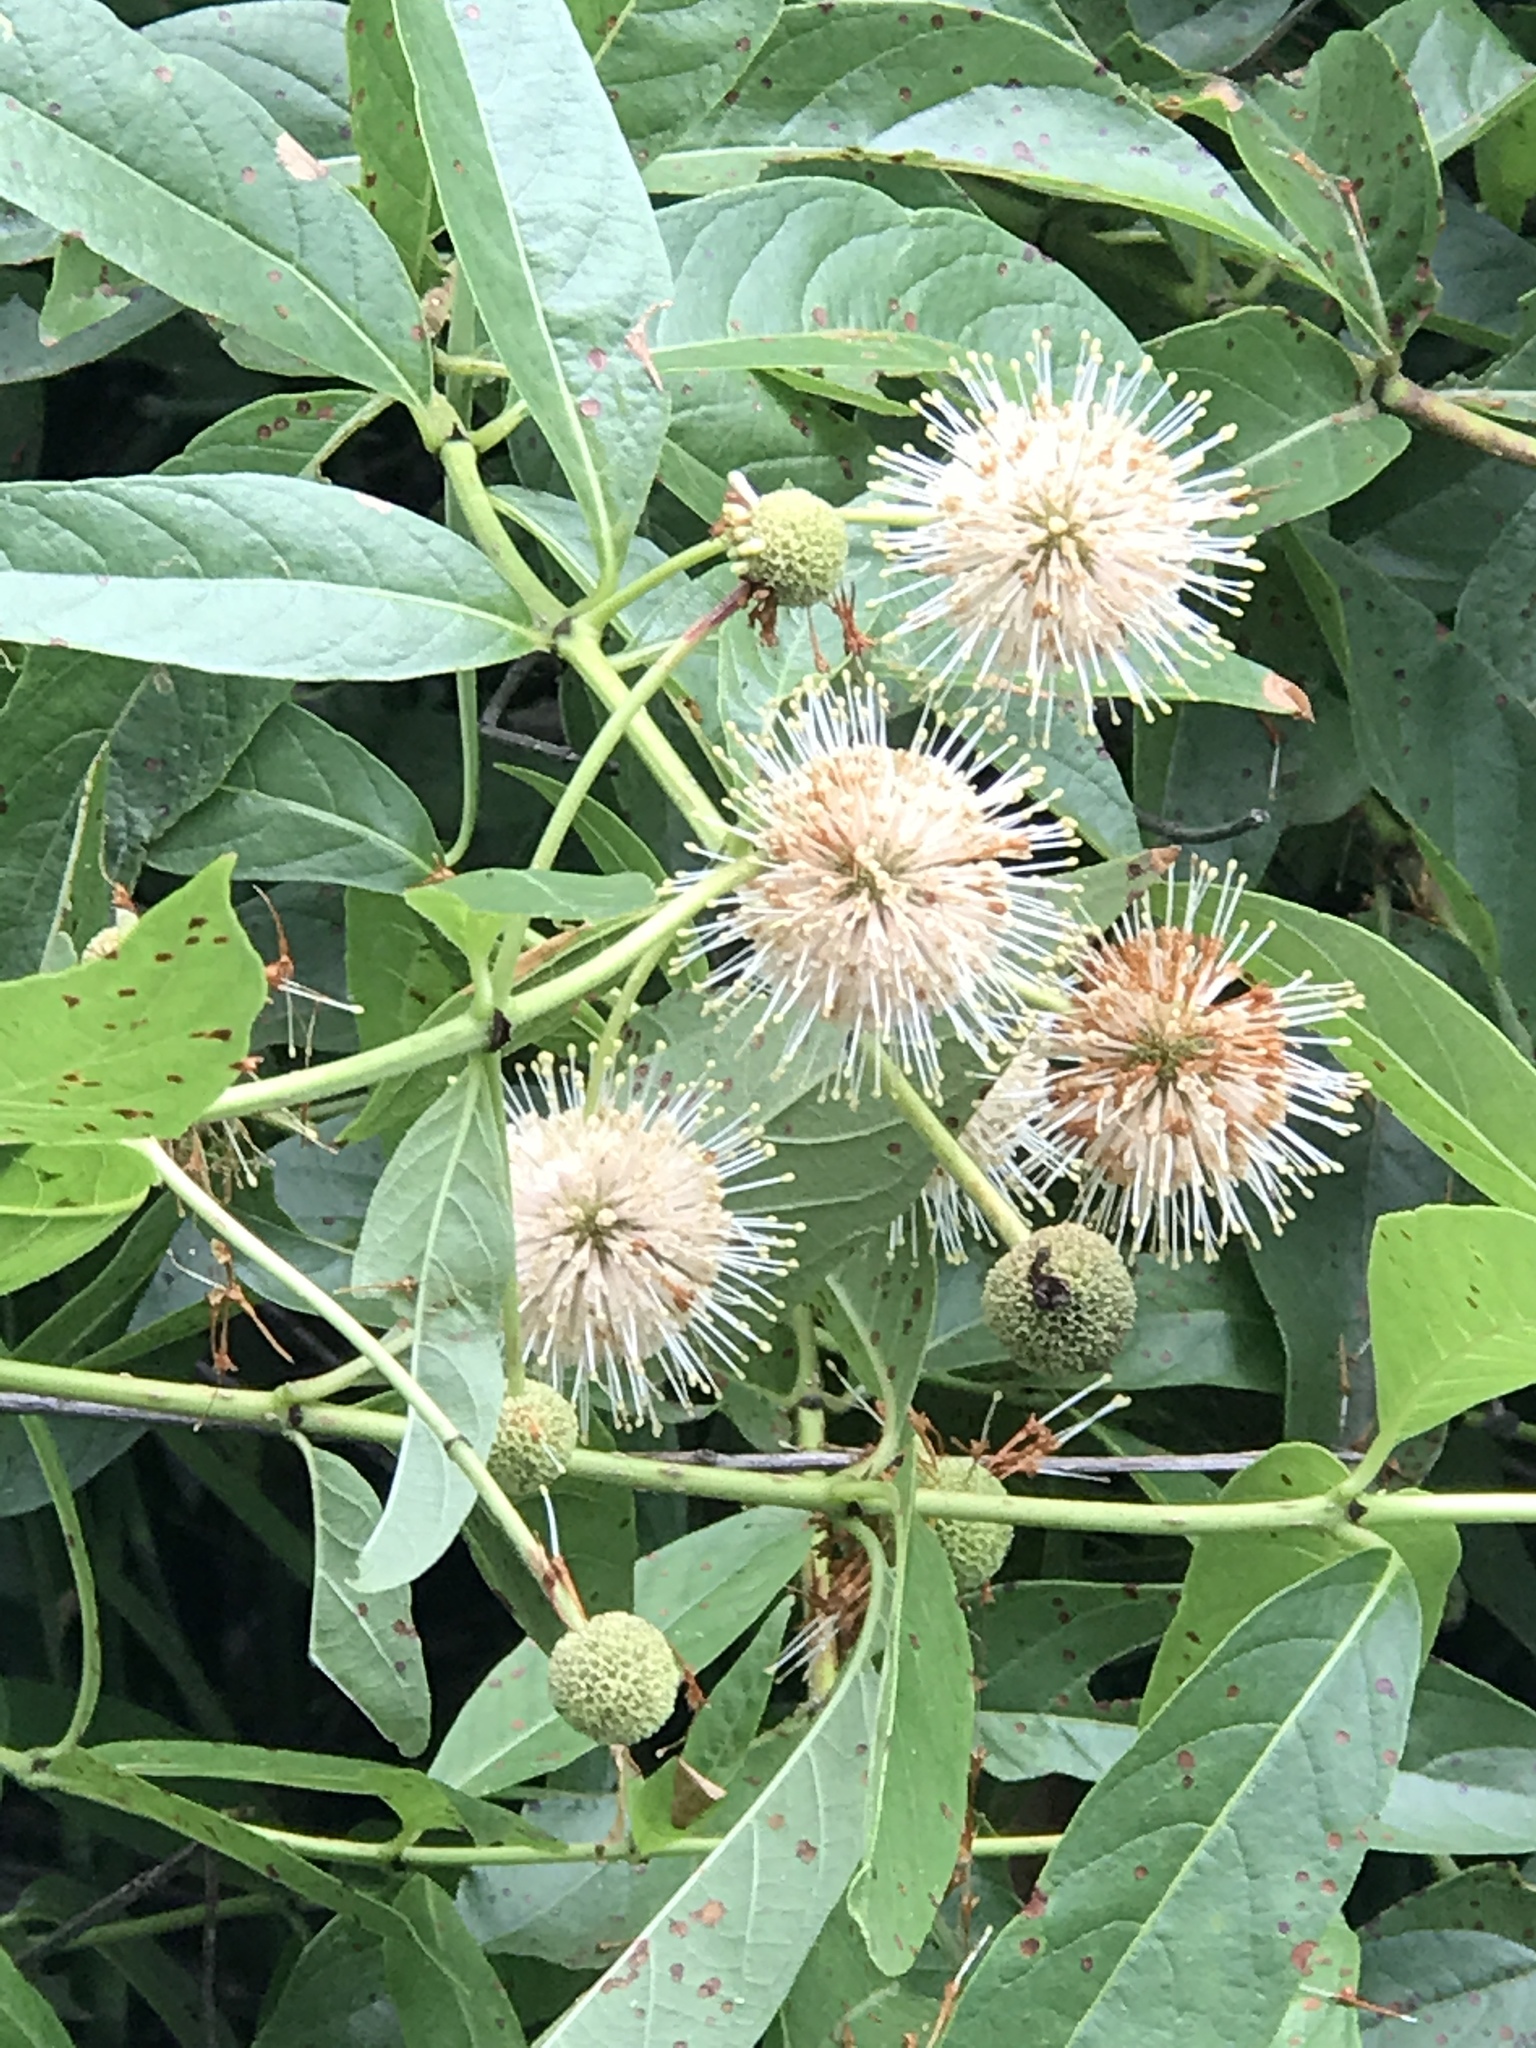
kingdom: Plantae
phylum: Tracheophyta
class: Magnoliopsida
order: Gentianales
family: Rubiaceae
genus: Cephalanthus
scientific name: Cephalanthus occidentalis
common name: Button-willow
